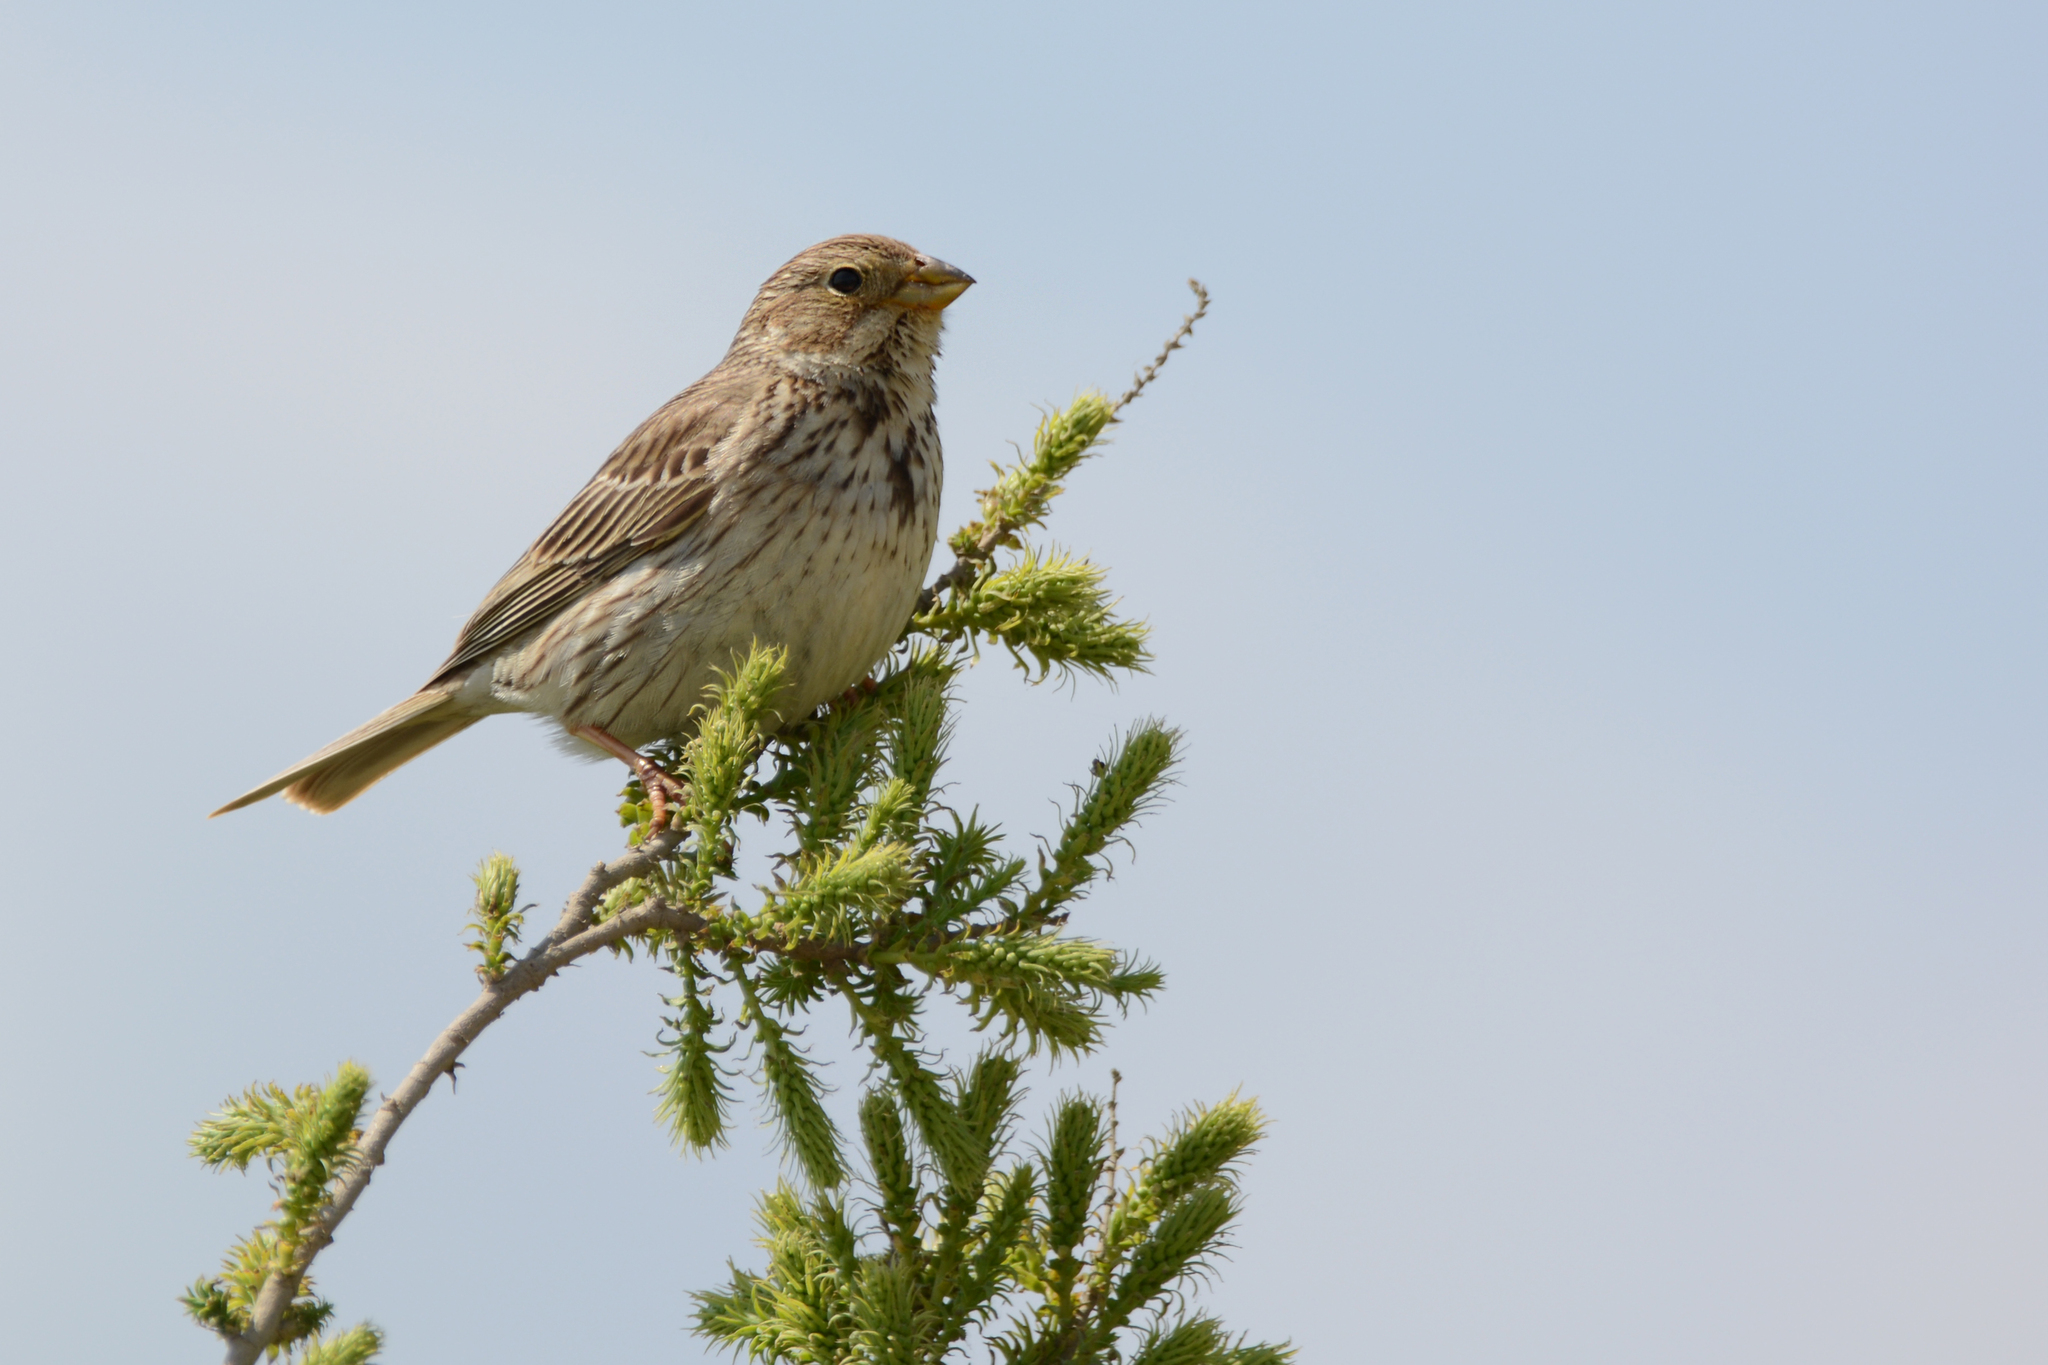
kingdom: Animalia
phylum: Chordata
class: Aves
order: Passeriformes
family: Emberizidae
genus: Emberiza
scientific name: Emberiza calandra
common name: Corn bunting
